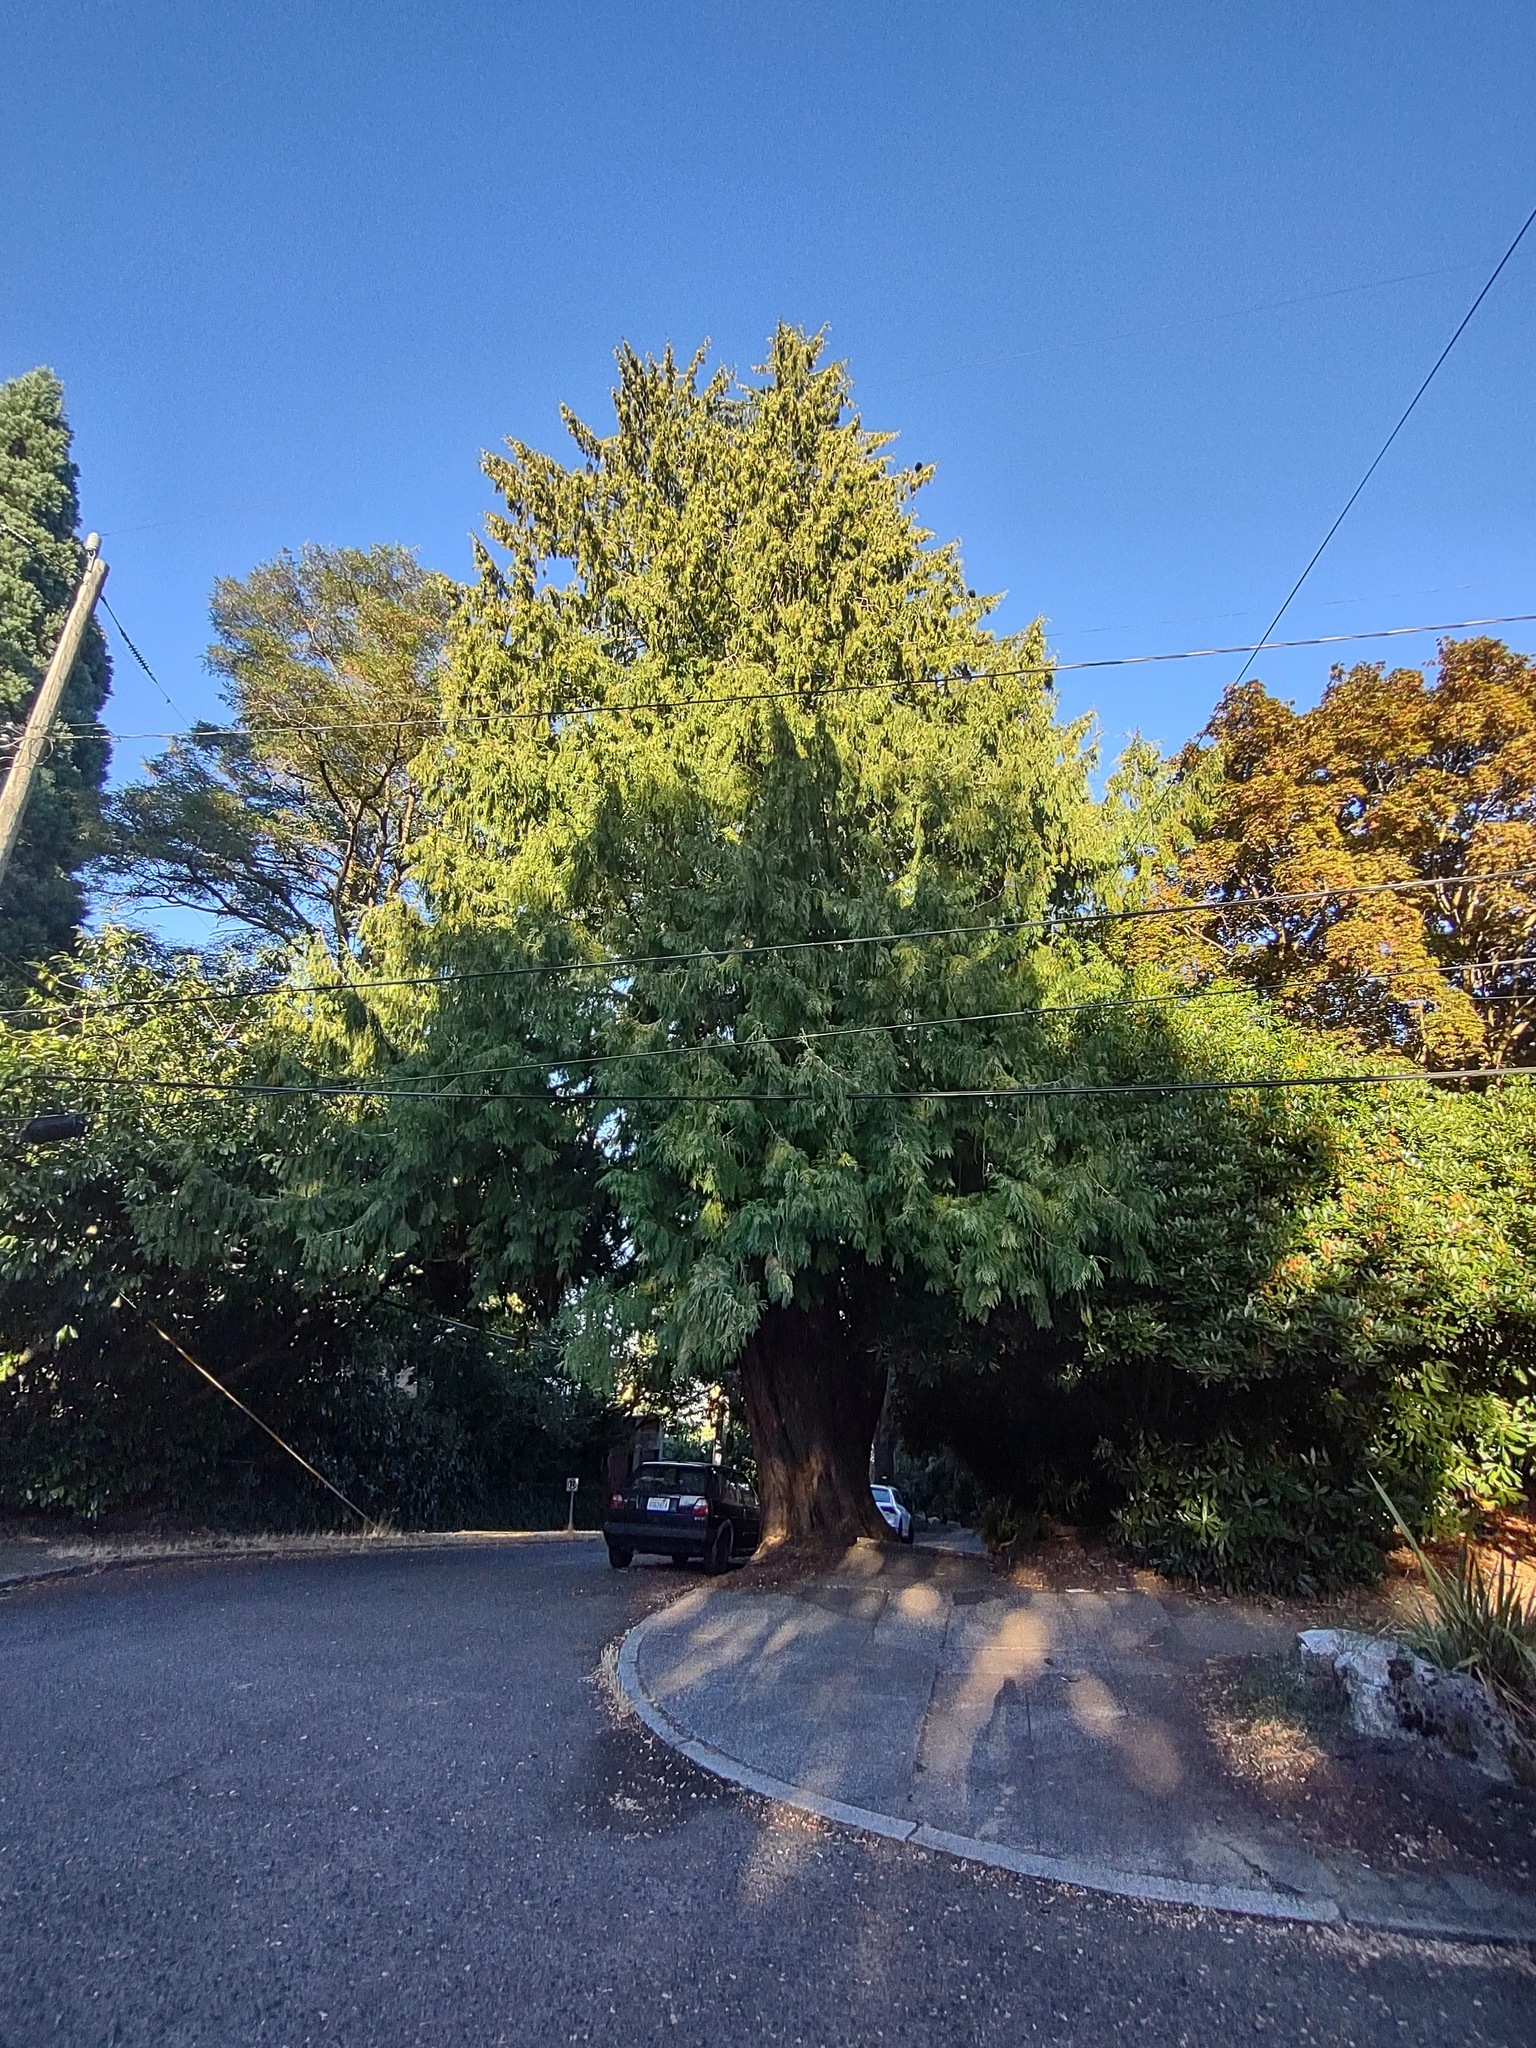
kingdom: Plantae
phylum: Tracheophyta
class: Pinopsida
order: Pinales
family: Cupressaceae
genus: Thuja
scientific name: Thuja plicata
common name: Western red-cedar
